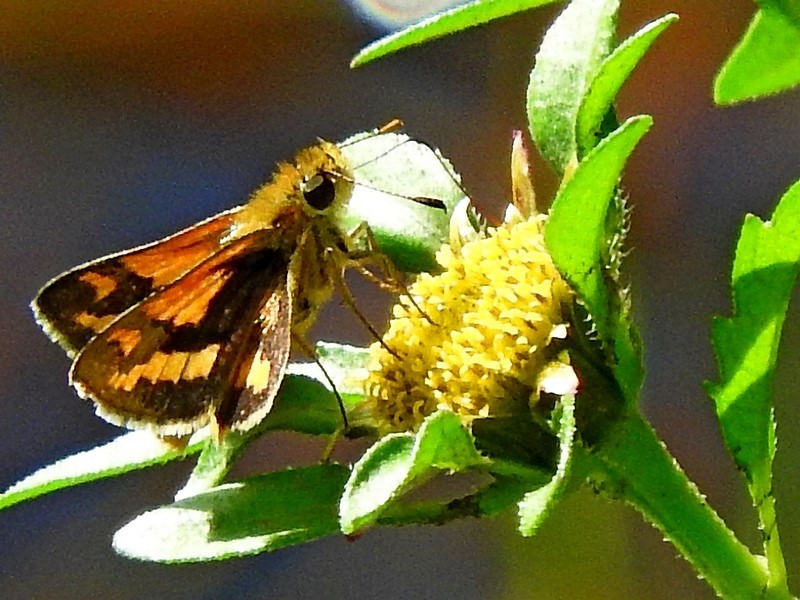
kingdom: Animalia
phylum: Arthropoda
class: Insecta
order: Lepidoptera
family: Hesperiidae
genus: Ocybadistes
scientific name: Ocybadistes flavovittata
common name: Narrow-brand grass-dart
